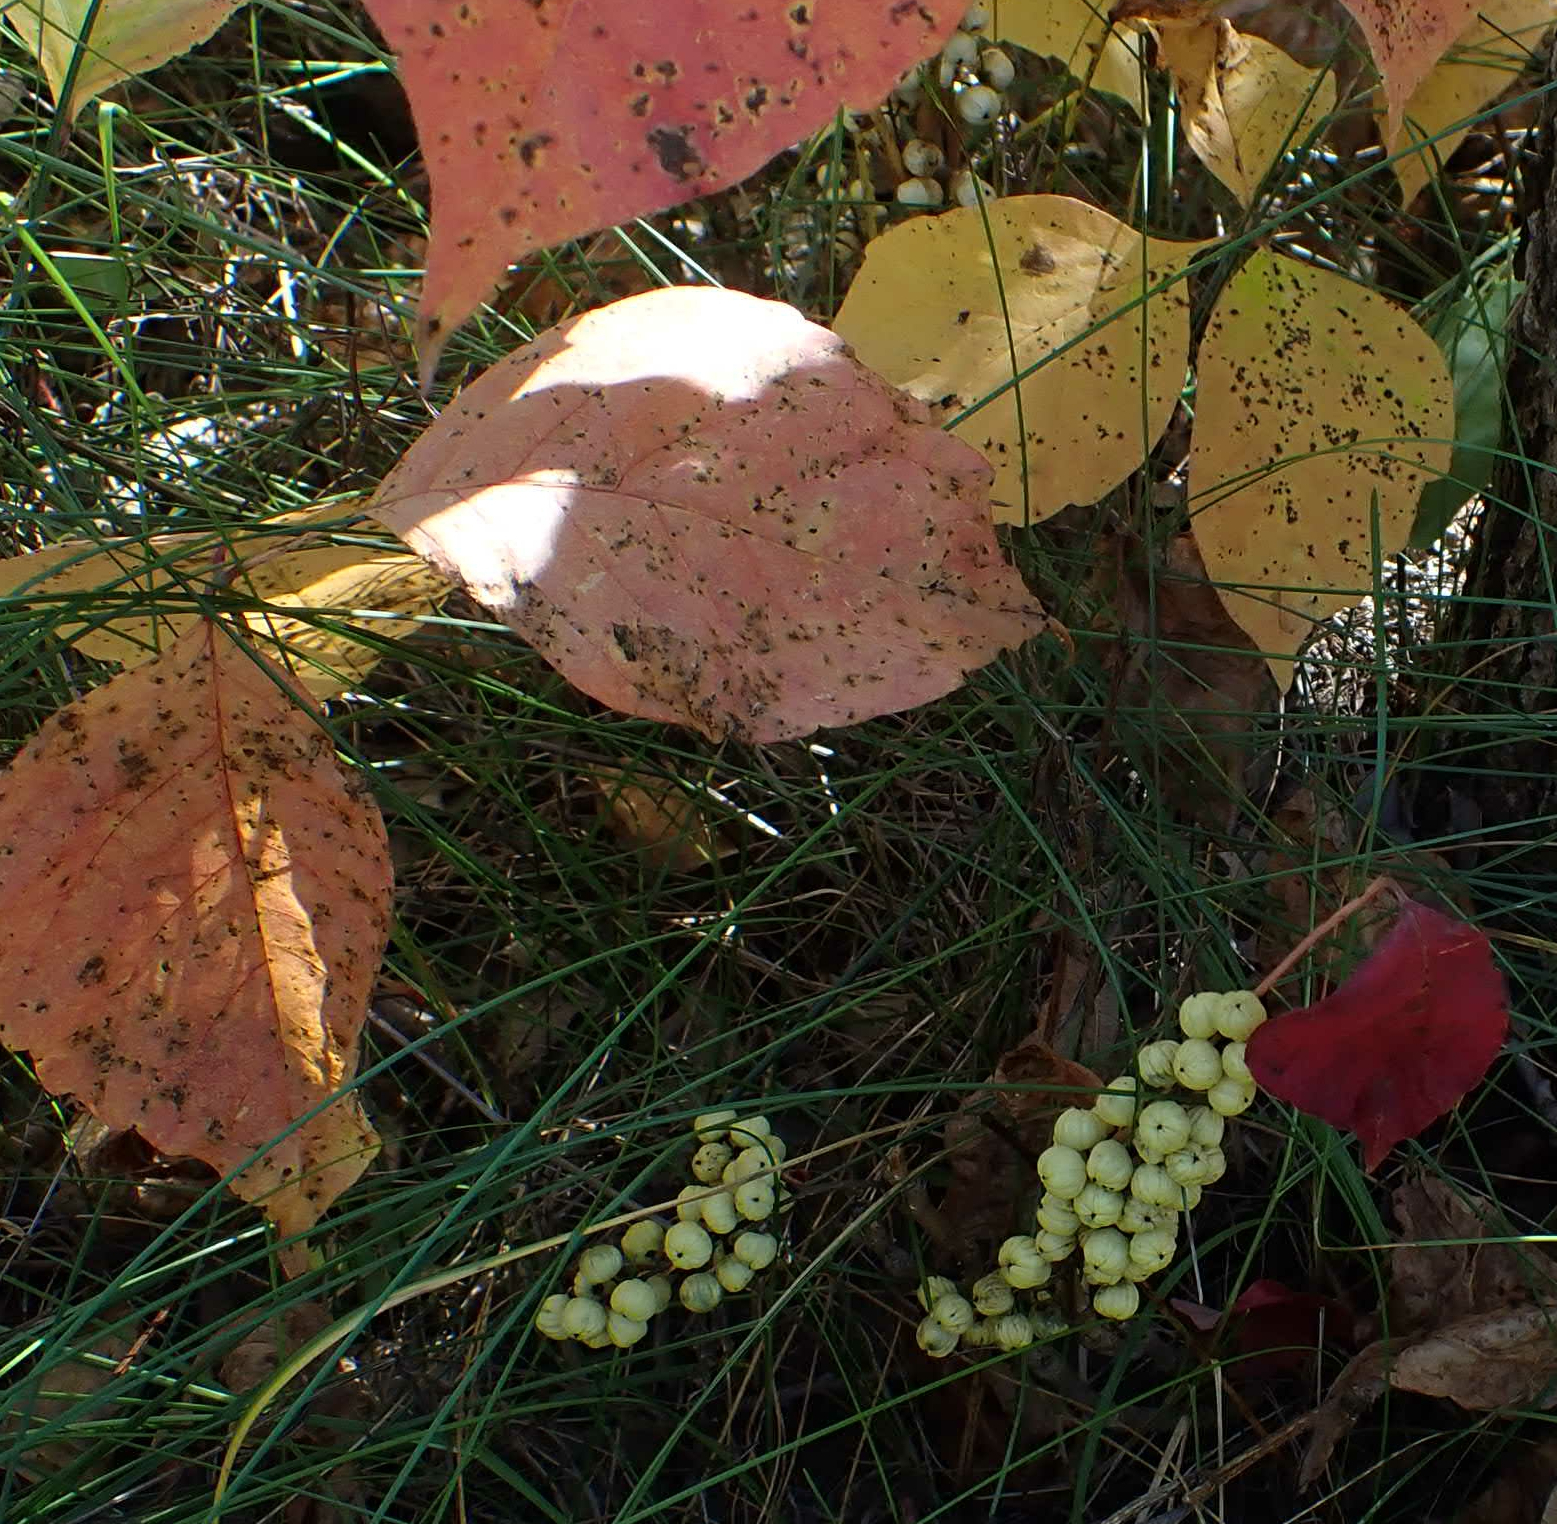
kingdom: Plantae
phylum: Tracheophyta
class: Magnoliopsida
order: Sapindales
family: Anacardiaceae
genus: Toxicodendron
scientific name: Toxicodendron rydbergii
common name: Rydberg's poison-ivy
